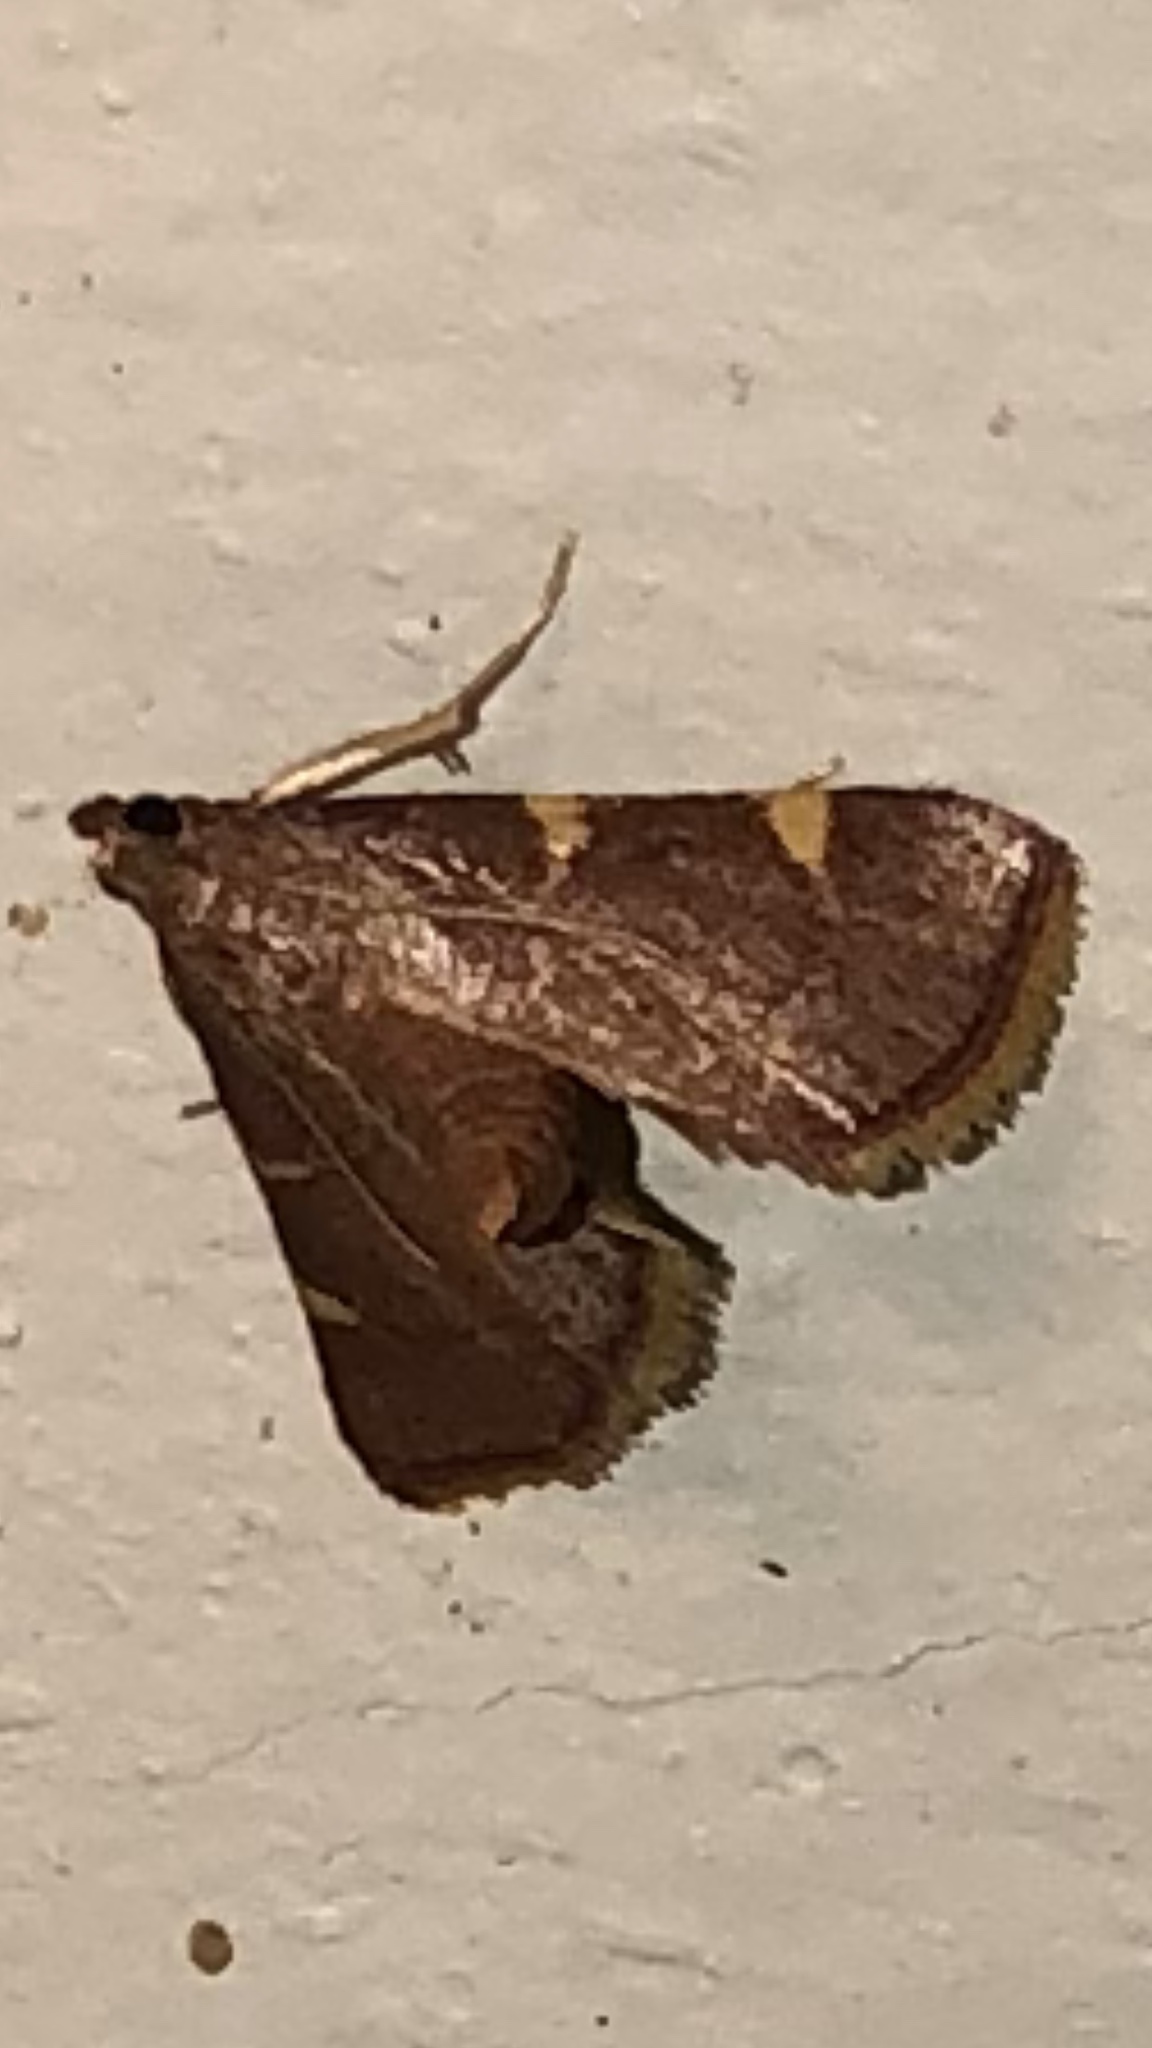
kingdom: Animalia
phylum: Arthropoda
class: Insecta
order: Lepidoptera
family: Pyralidae
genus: Hypsopygia
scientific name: Hypsopygia olinalis
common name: Yellow-fringed dolichomia moth
